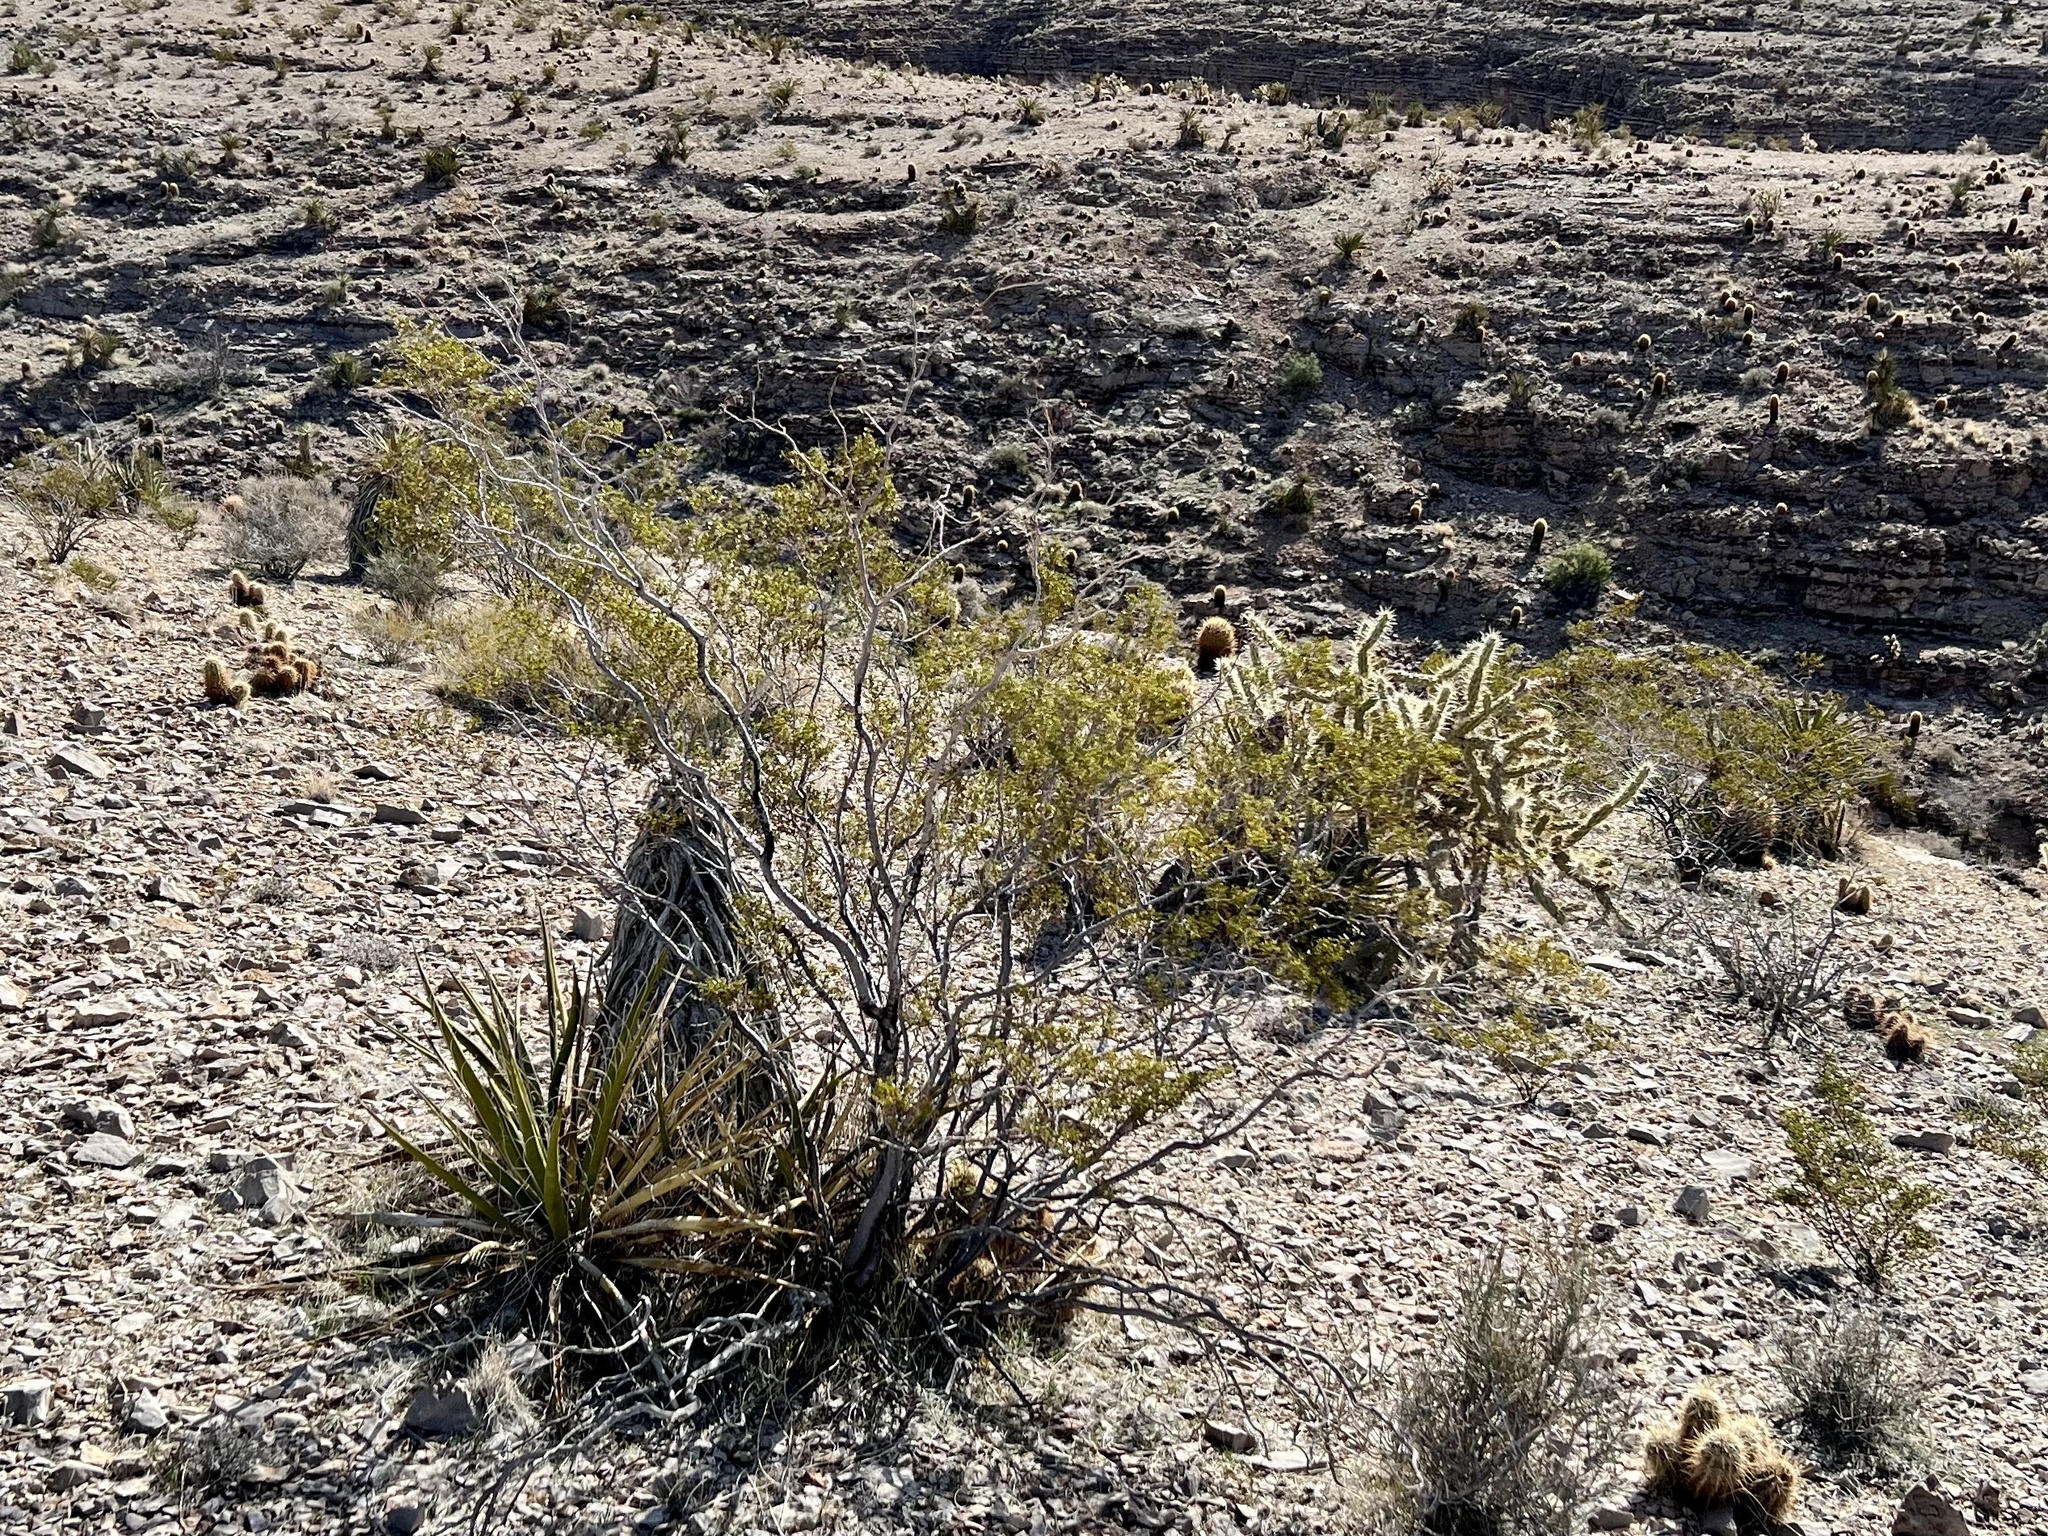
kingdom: Plantae
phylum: Tracheophyta
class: Magnoliopsida
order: Zygophyllales
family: Zygophyllaceae
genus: Larrea
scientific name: Larrea tridentata
